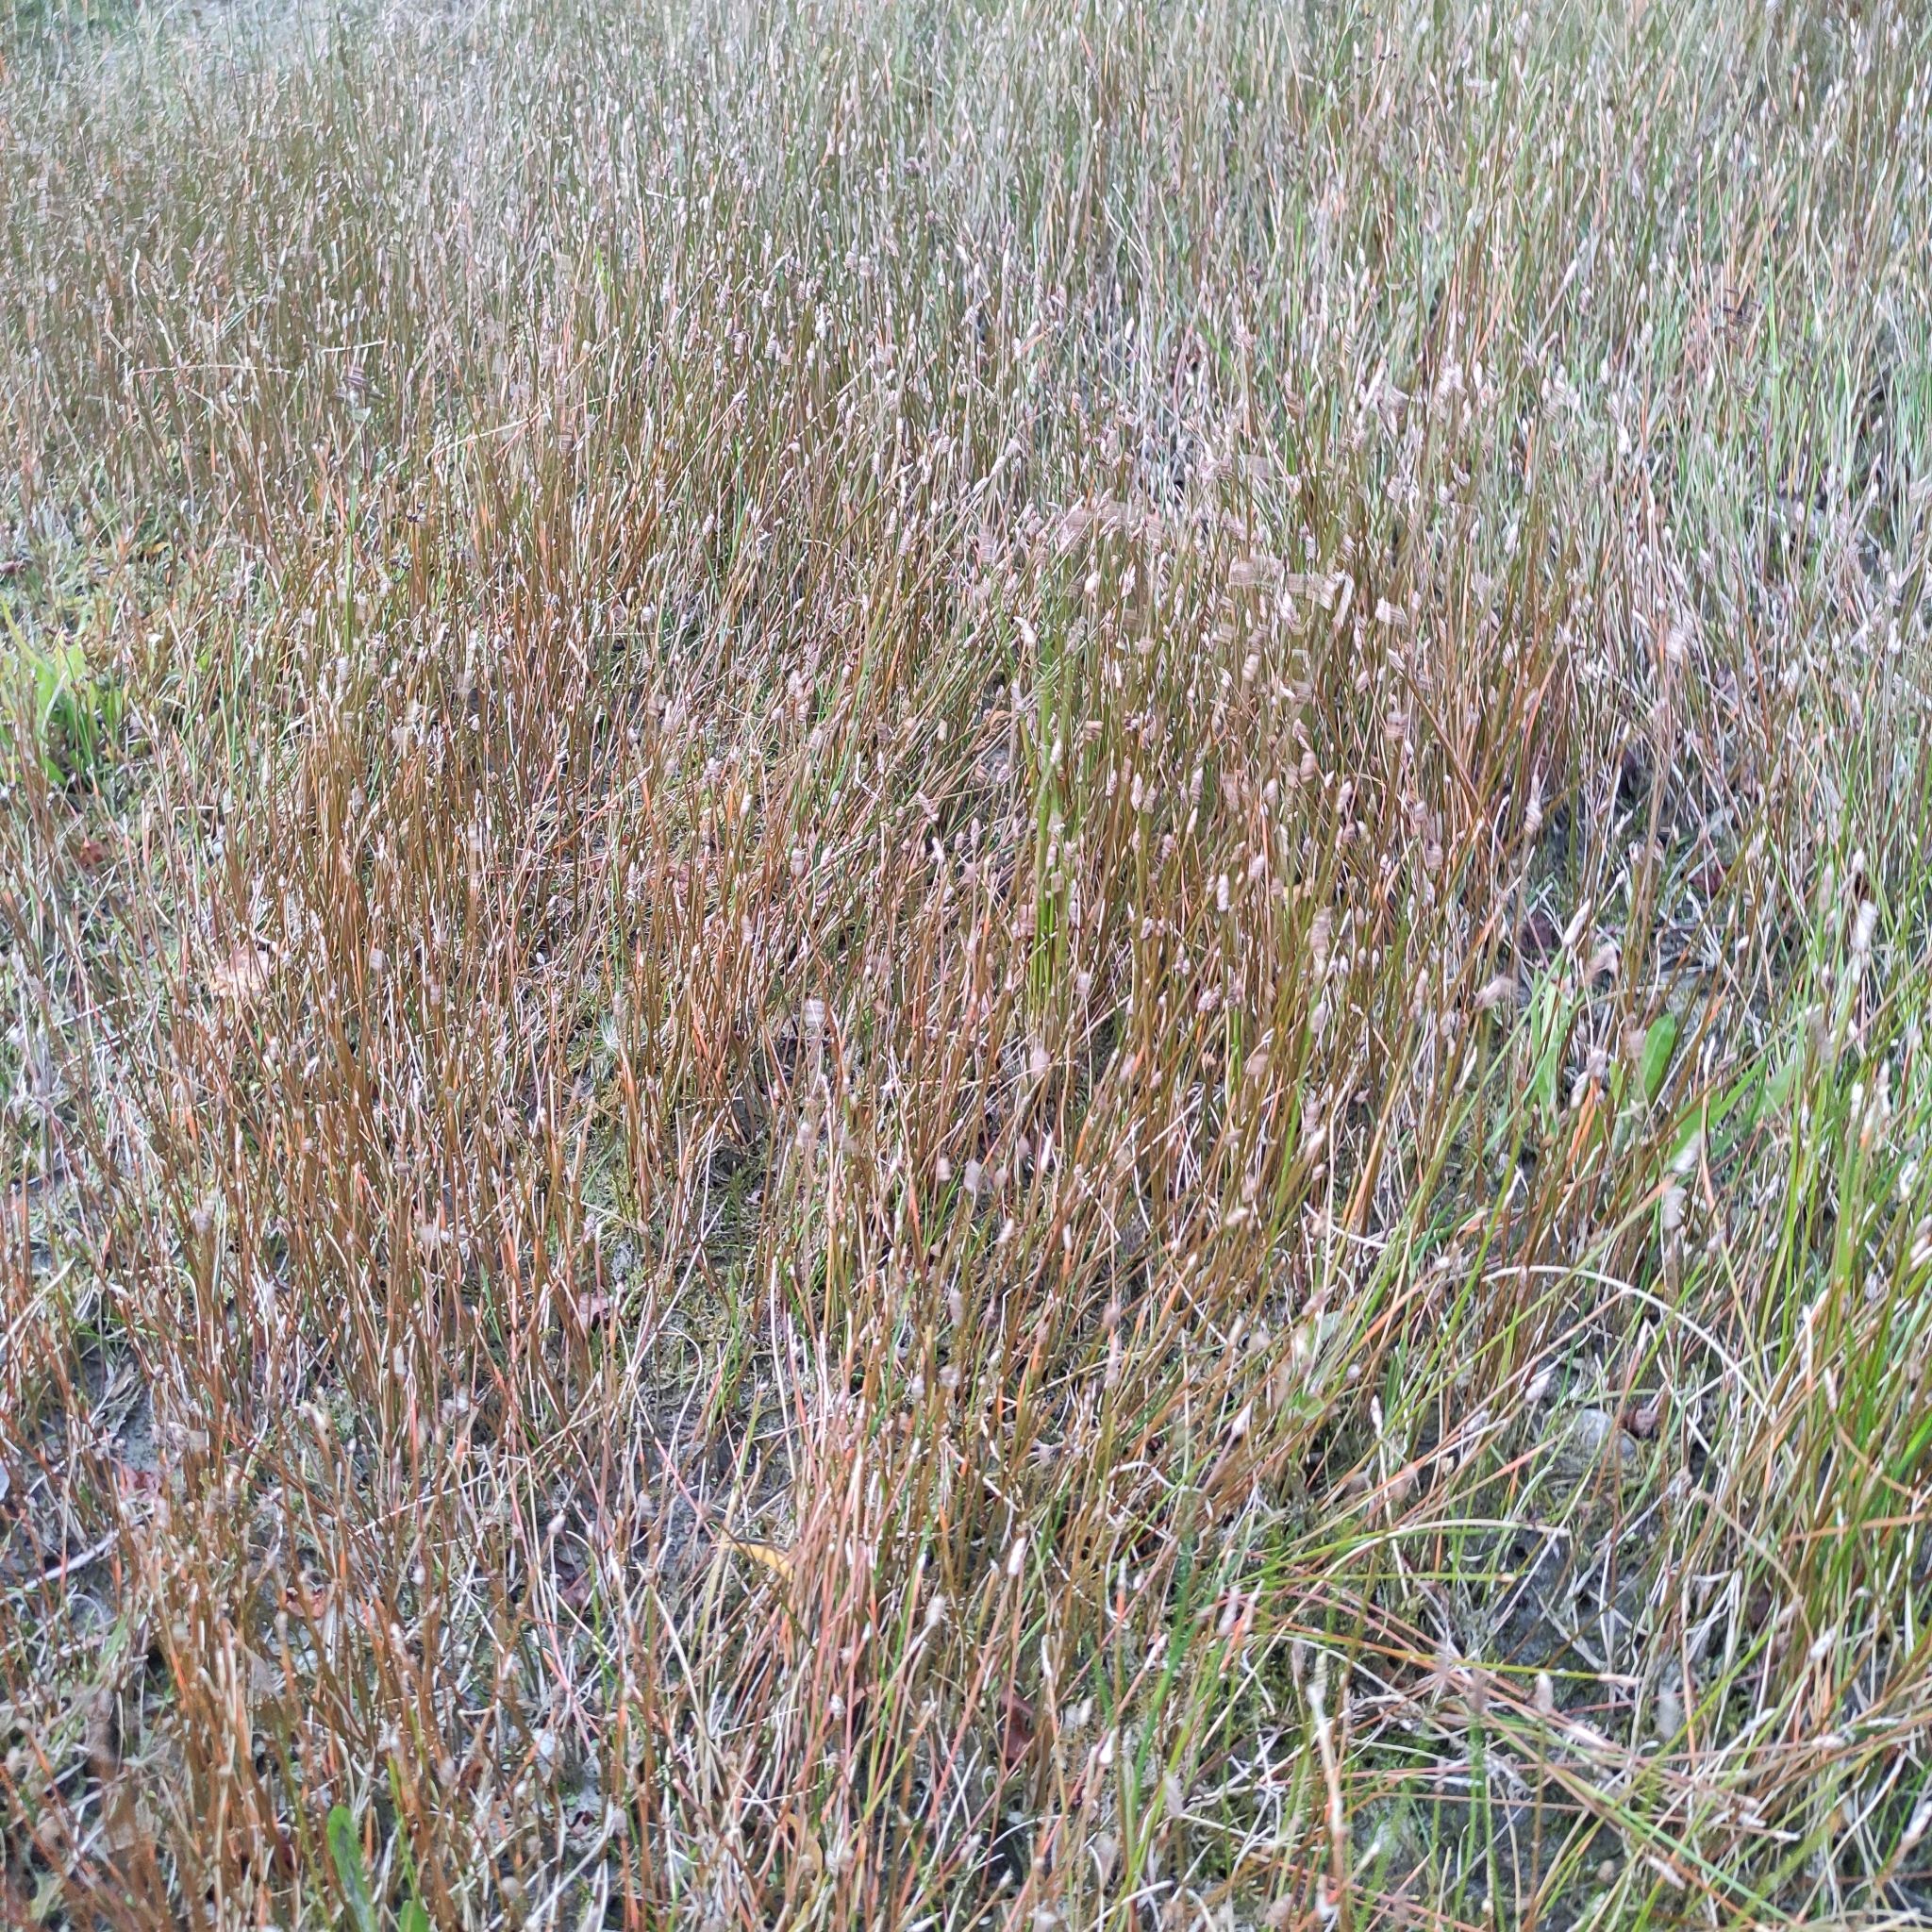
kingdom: Plantae
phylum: Tracheophyta
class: Liliopsida
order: Poales
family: Cyperaceae
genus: Eleocharis
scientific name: Eleocharis acuta
